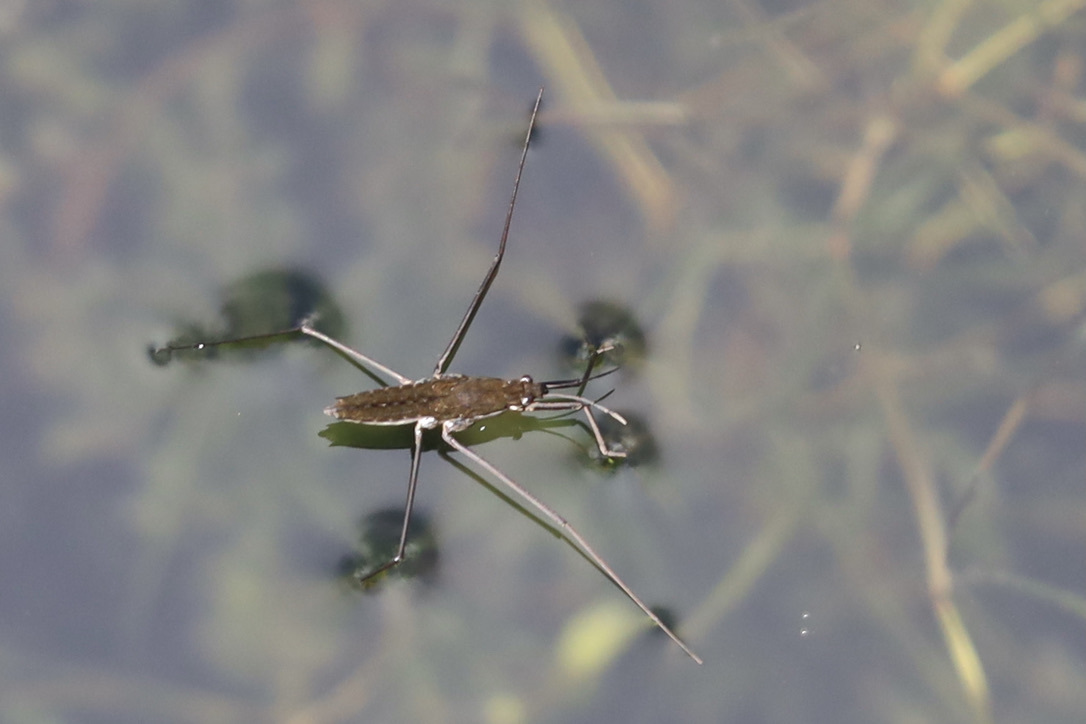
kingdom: Animalia
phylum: Arthropoda
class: Insecta
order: Hemiptera
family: Gerridae
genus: Aquarius
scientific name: Aquarius remigis
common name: Common water strider
